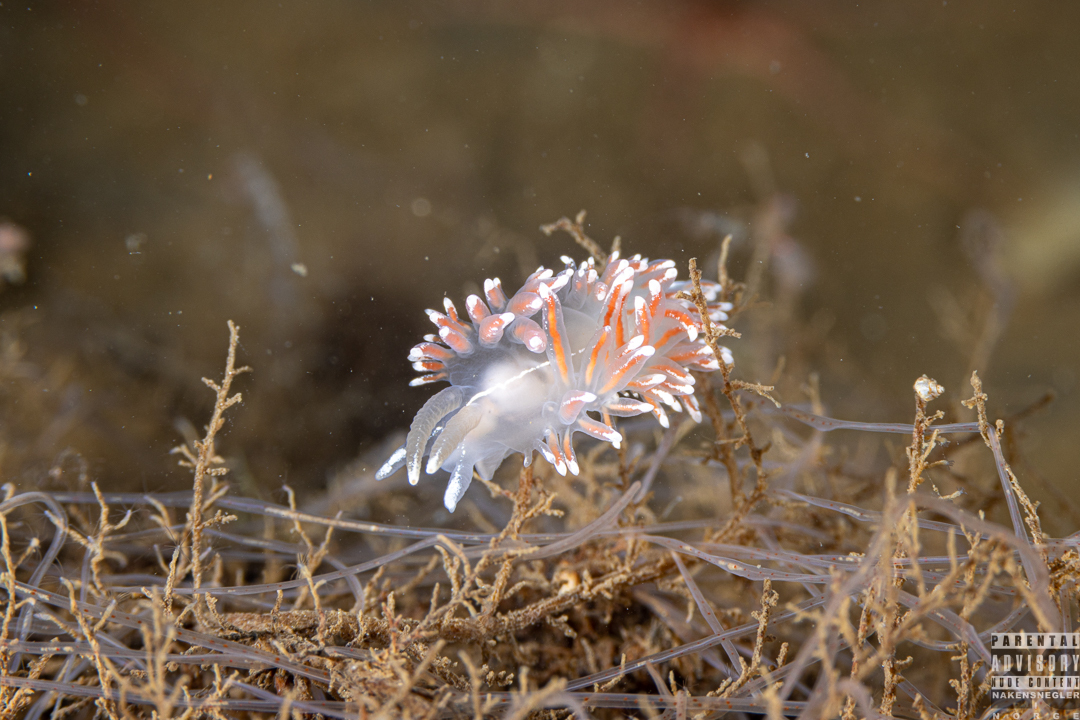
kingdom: Animalia
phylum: Mollusca
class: Gastropoda
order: Nudibranchia
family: Coryphellidae
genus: Coryphella
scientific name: Coryphella lineata
